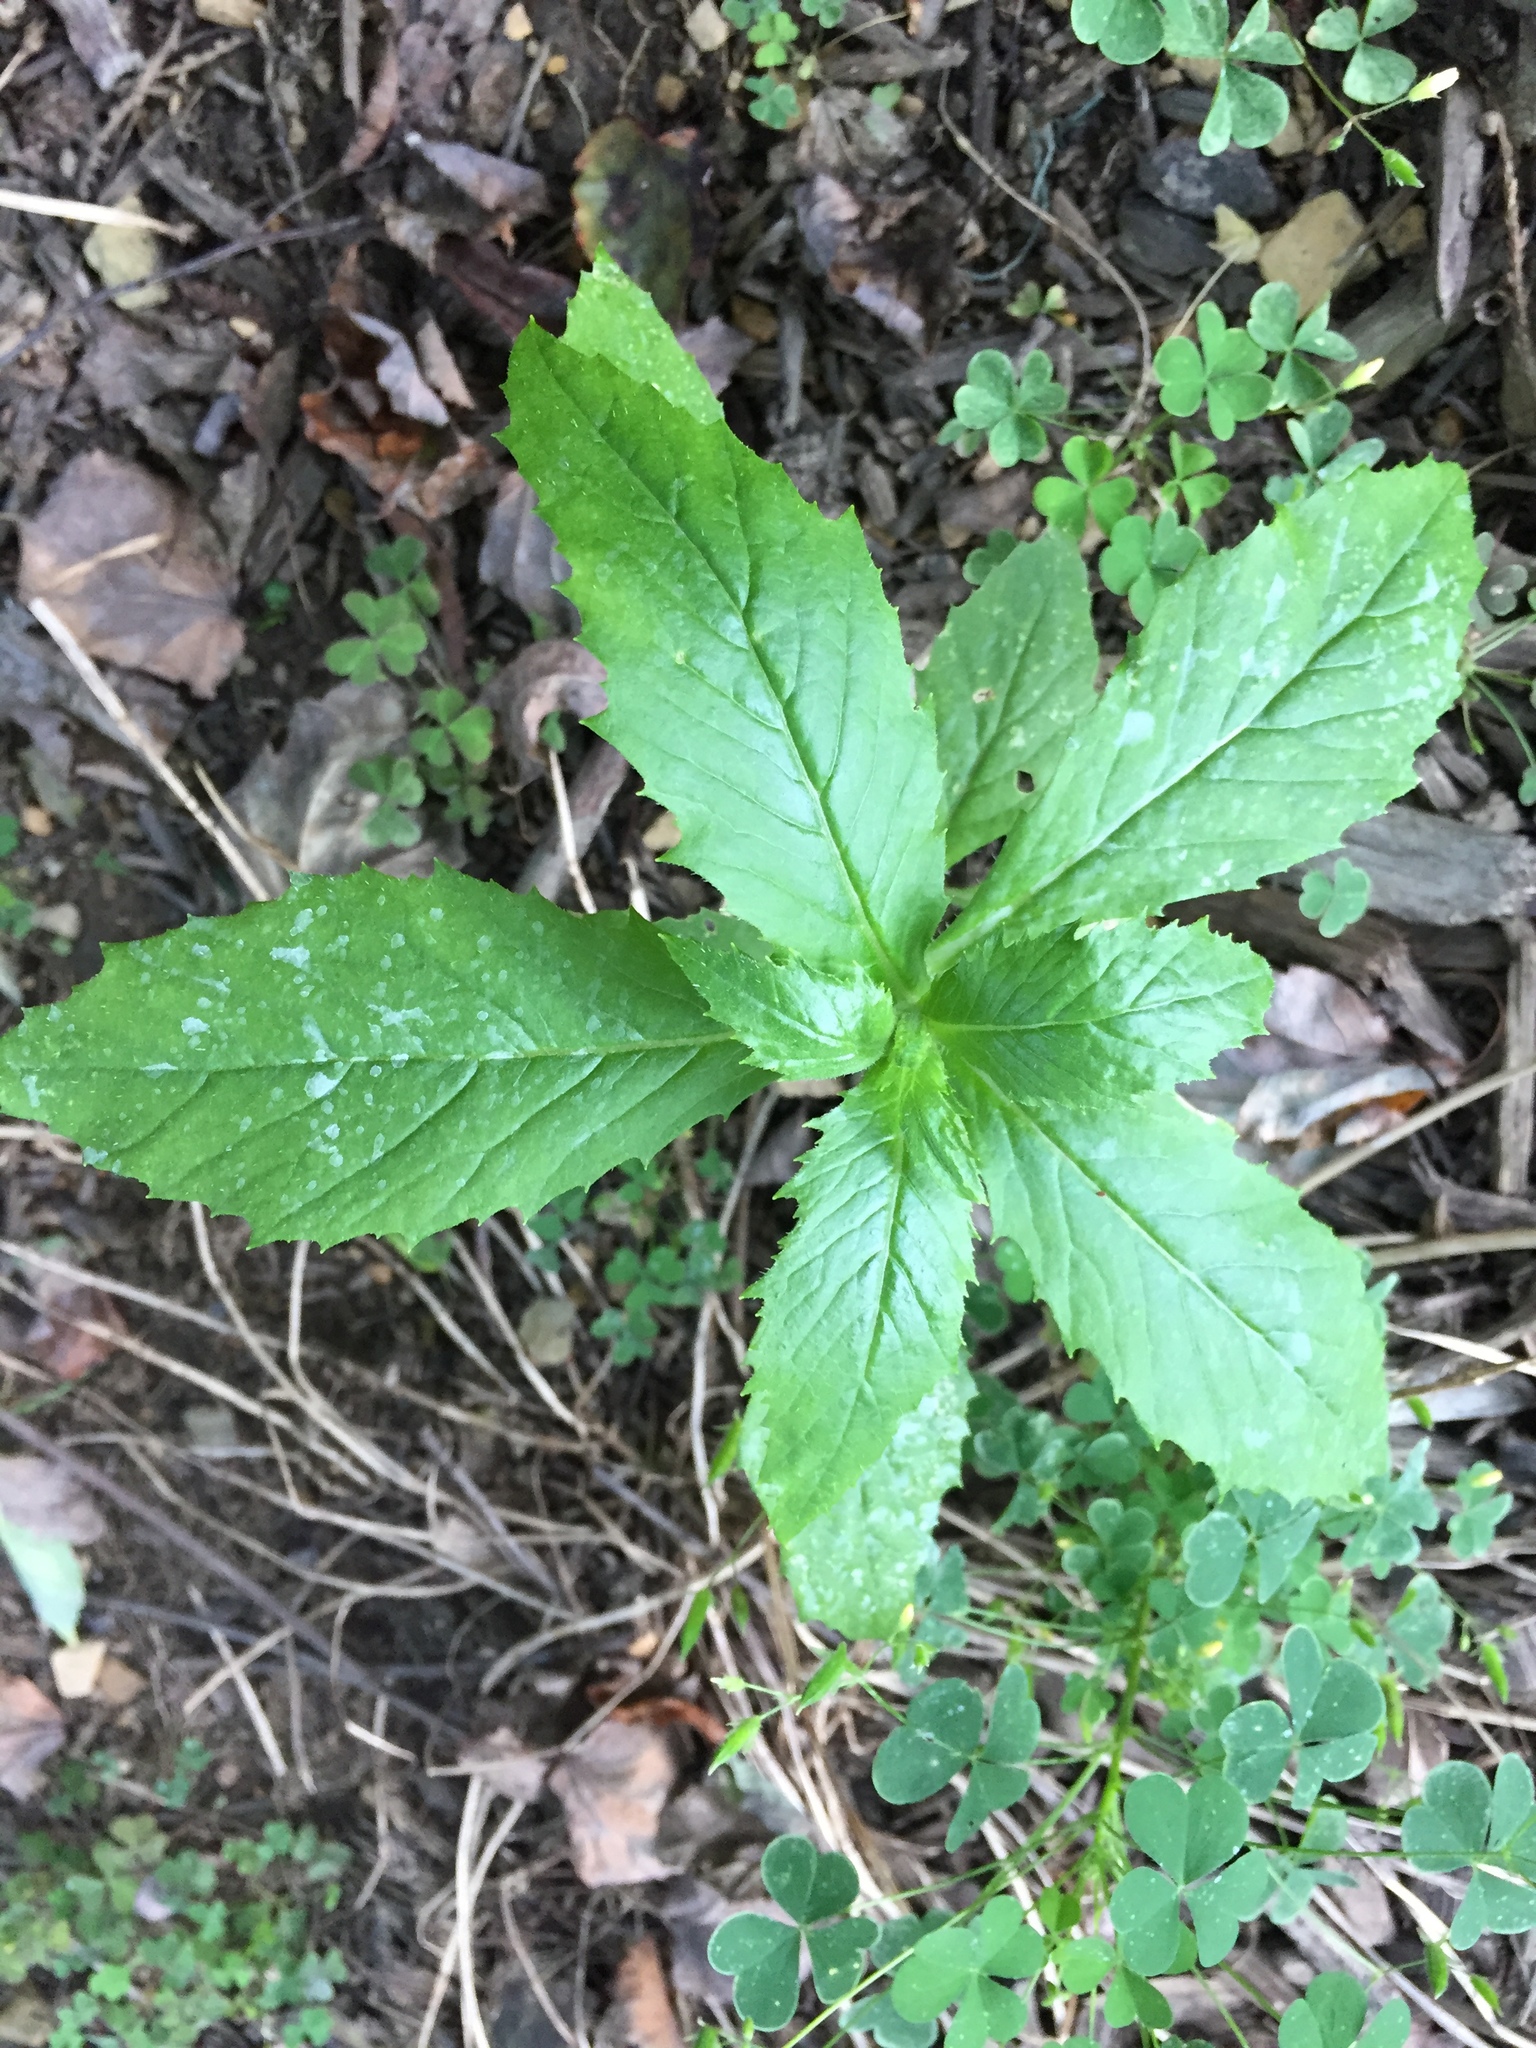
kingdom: Plantae
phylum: Tracheophyta
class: Magnoliopsida
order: Asterales
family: Asteraceae
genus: Erechtites
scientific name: Erechtites hieraciifolius
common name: American burnweed
